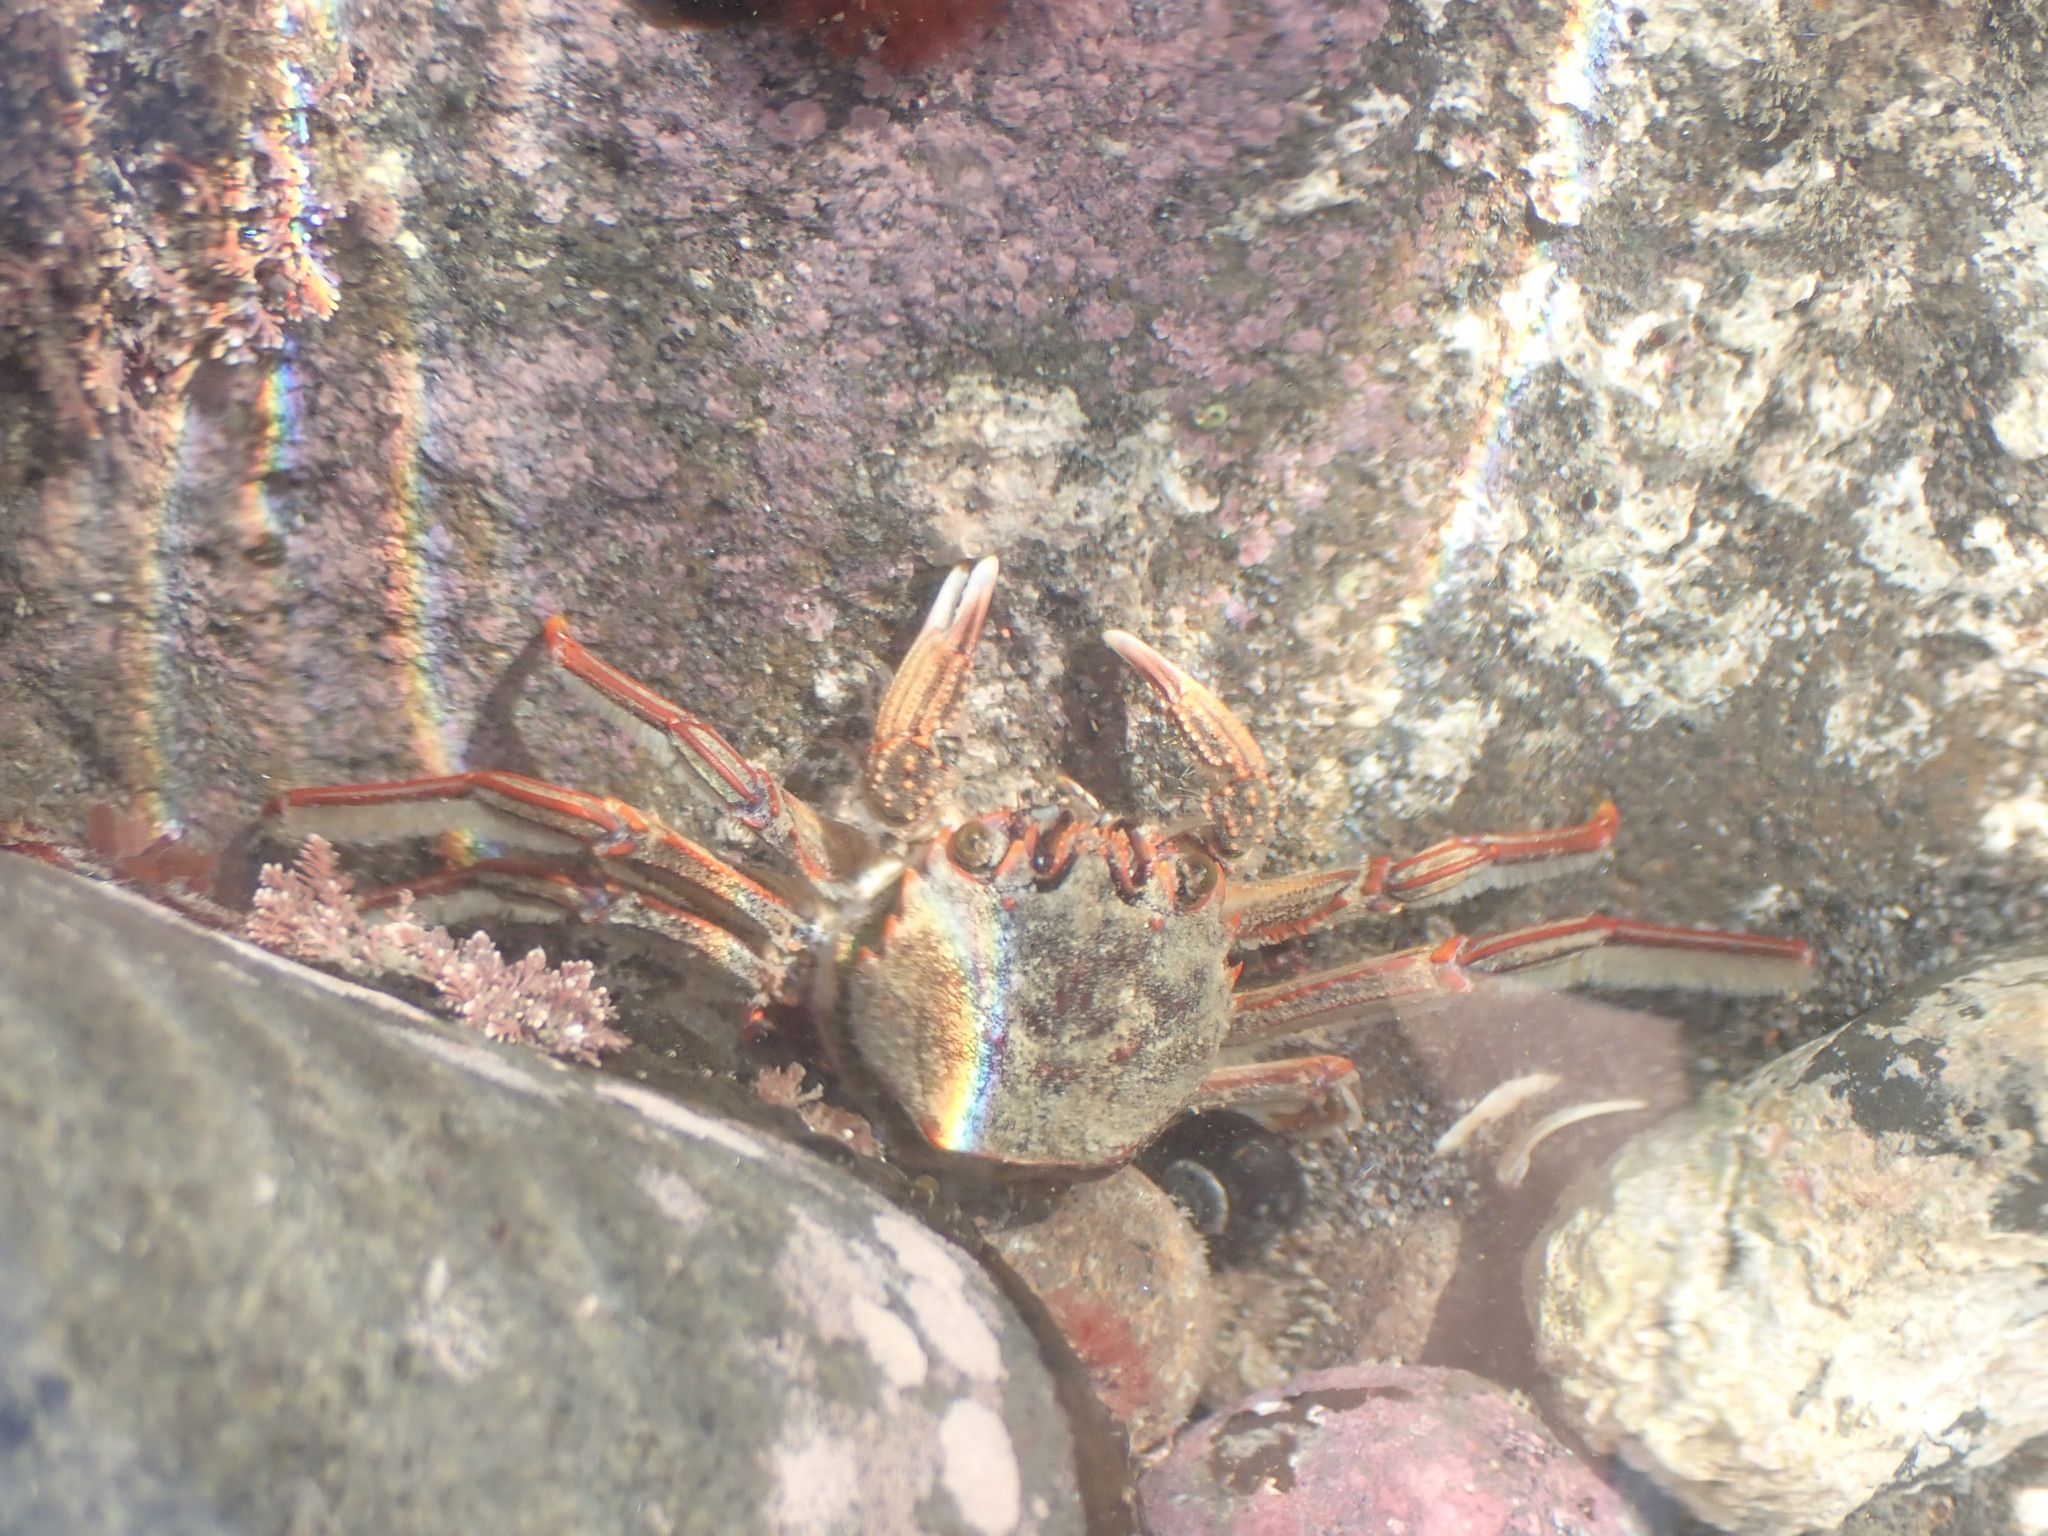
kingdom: Animalia
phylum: Arthropoda
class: Malacostraca
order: Decapoda
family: Plagusiidae
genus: Guinusia
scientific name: Guinusia chabrus
